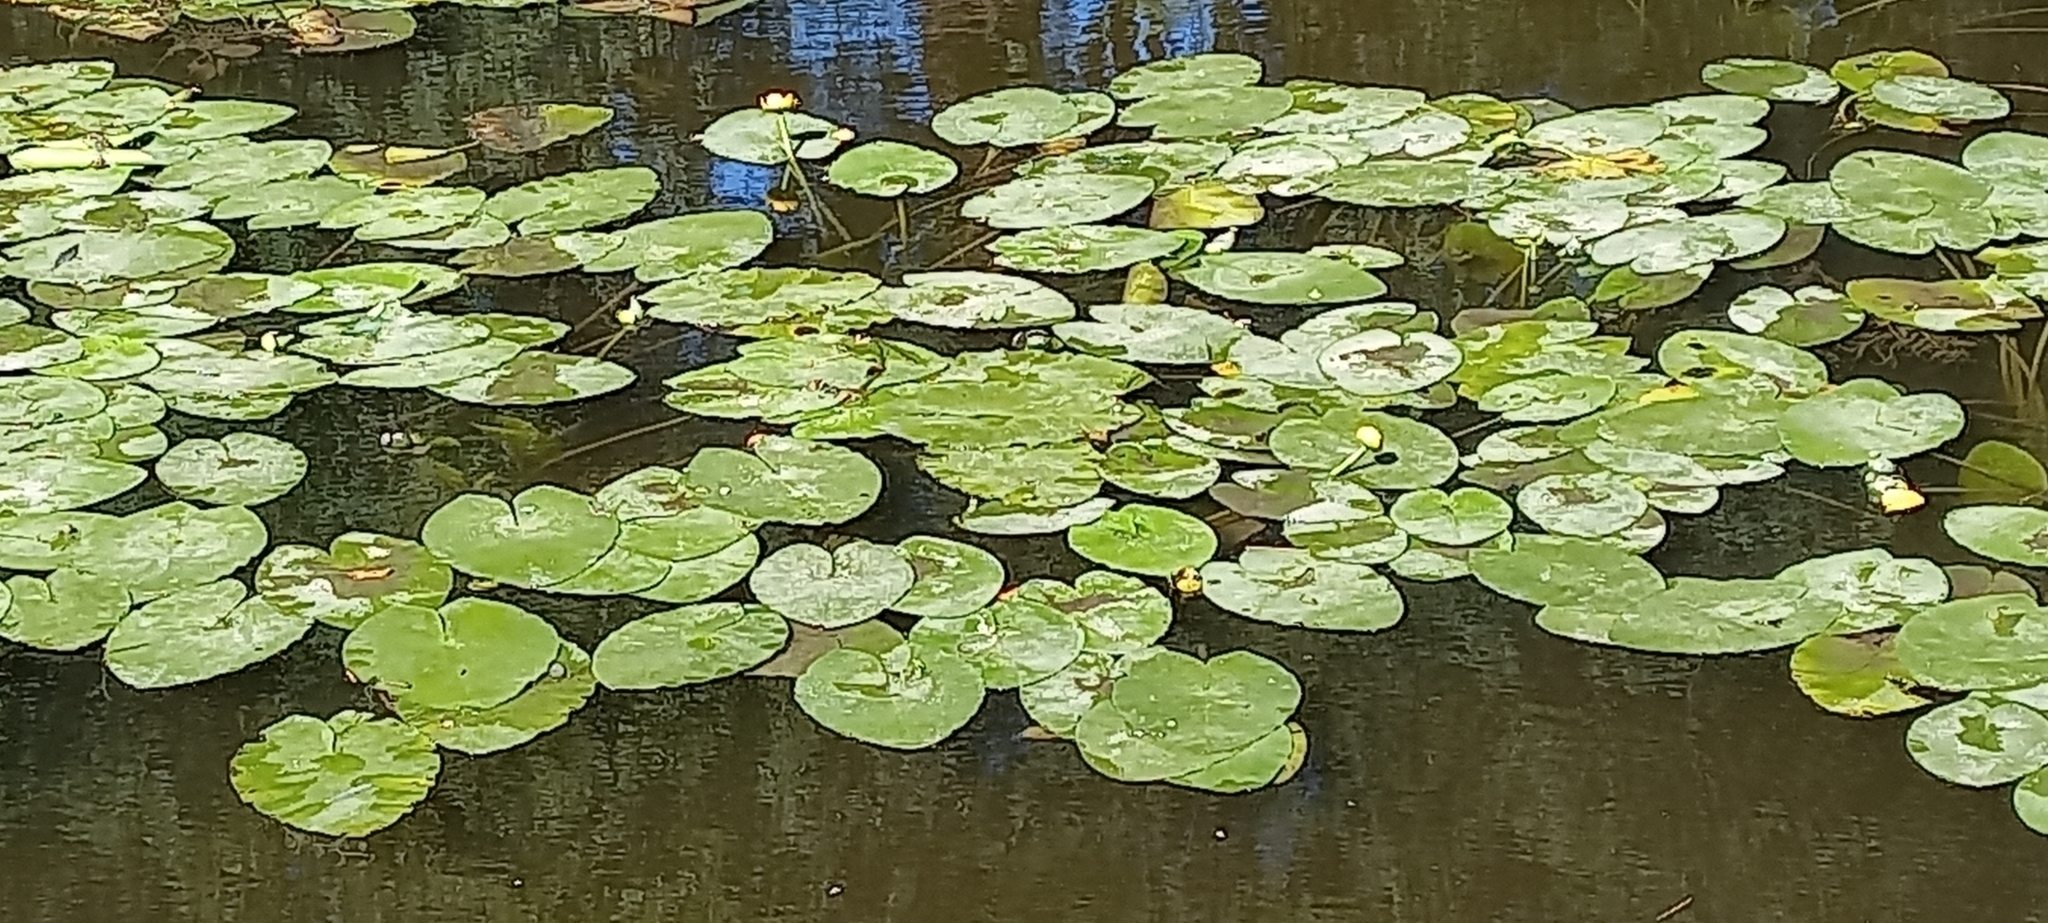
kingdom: Plantae
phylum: Tracheophyta
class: Magnoliopsida
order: Nymphaeales
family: Nymphaeaceae
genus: Nuphar
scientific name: Nuphar lutea
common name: Yellow water-lily
